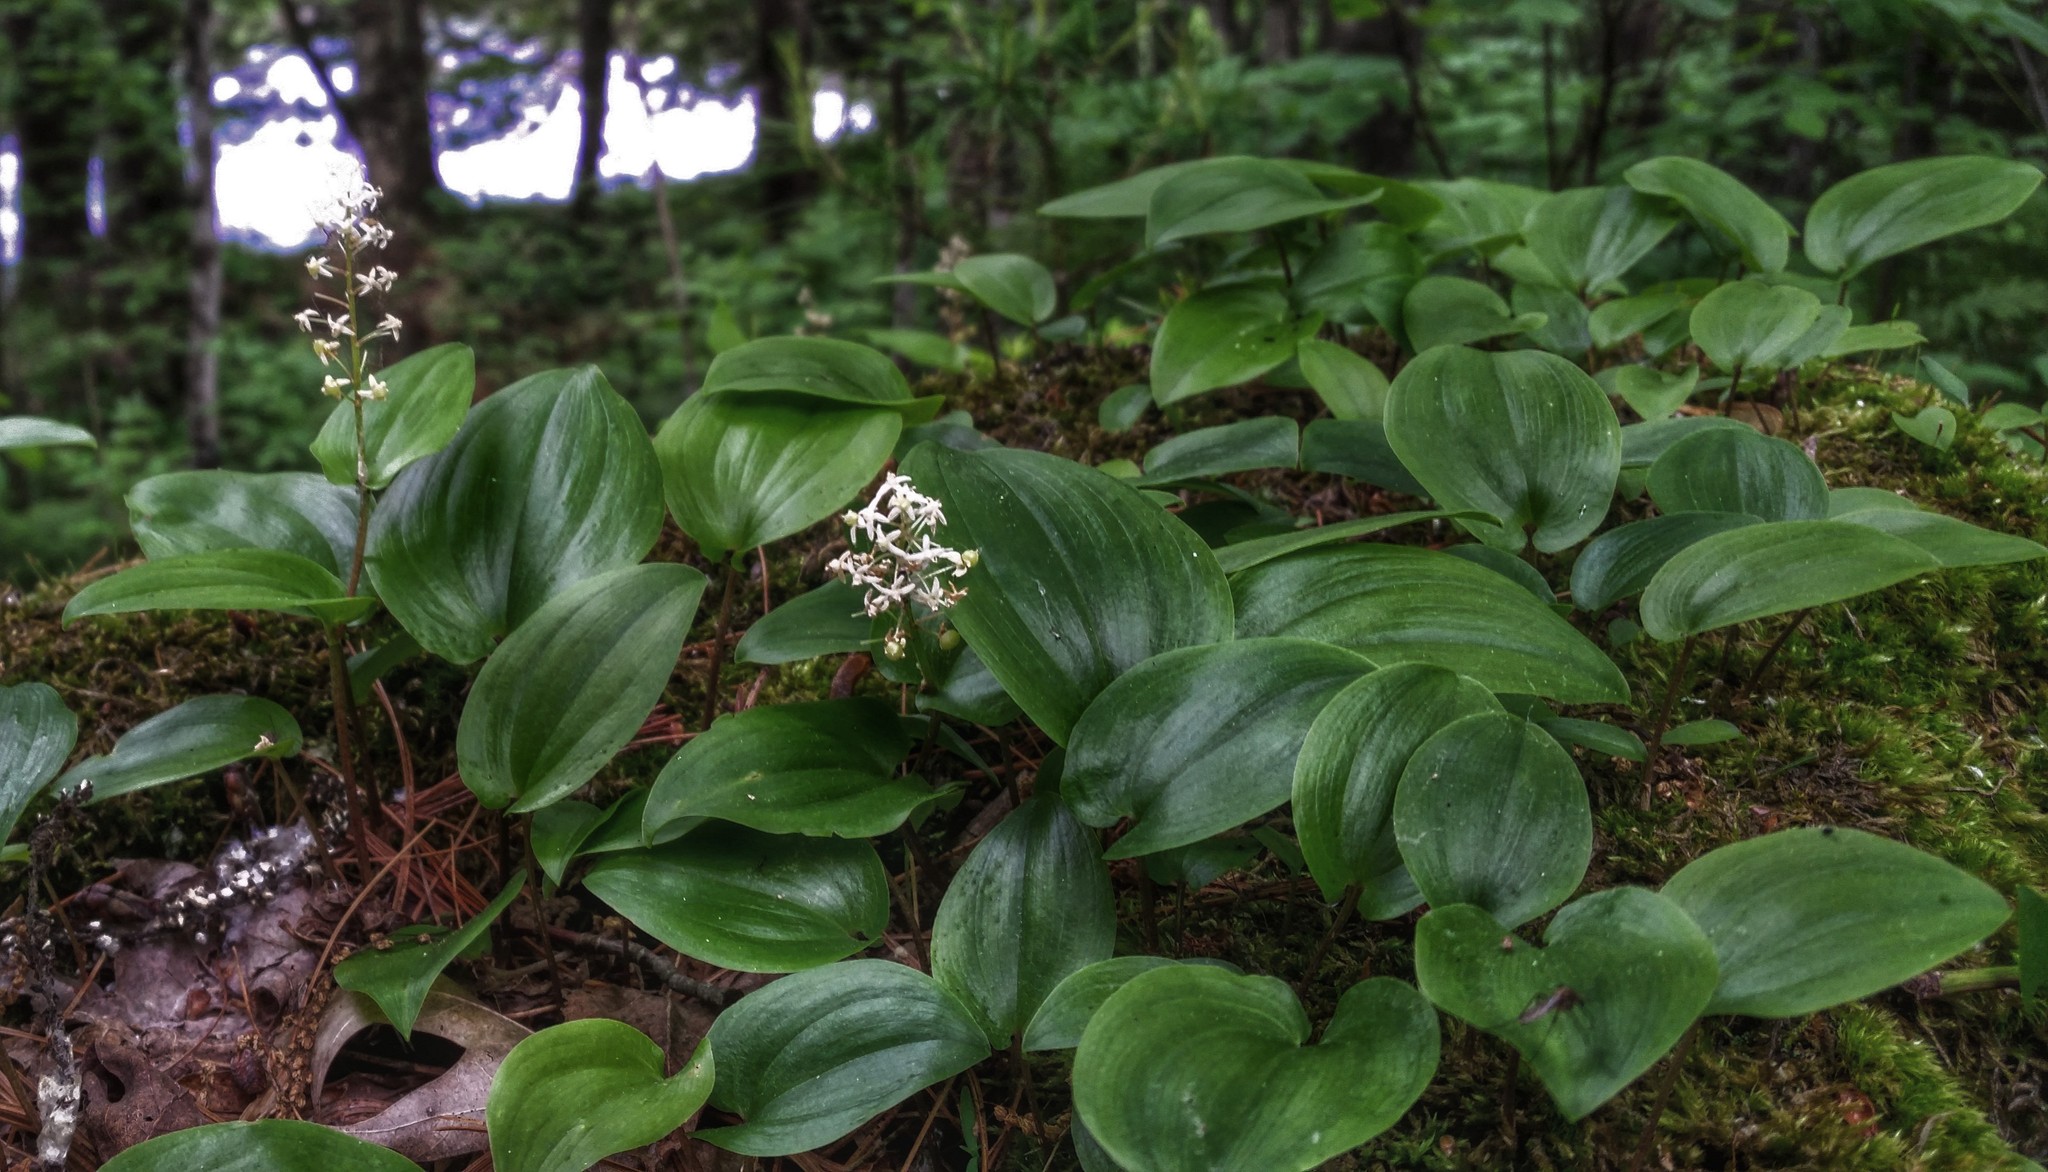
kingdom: Plantae
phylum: Tracheophyta
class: Liliopsida
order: Asparagales
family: Asparagaceae
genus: Maianthemum
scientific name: Maianthemum canadense
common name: False lily-of-the-valley
